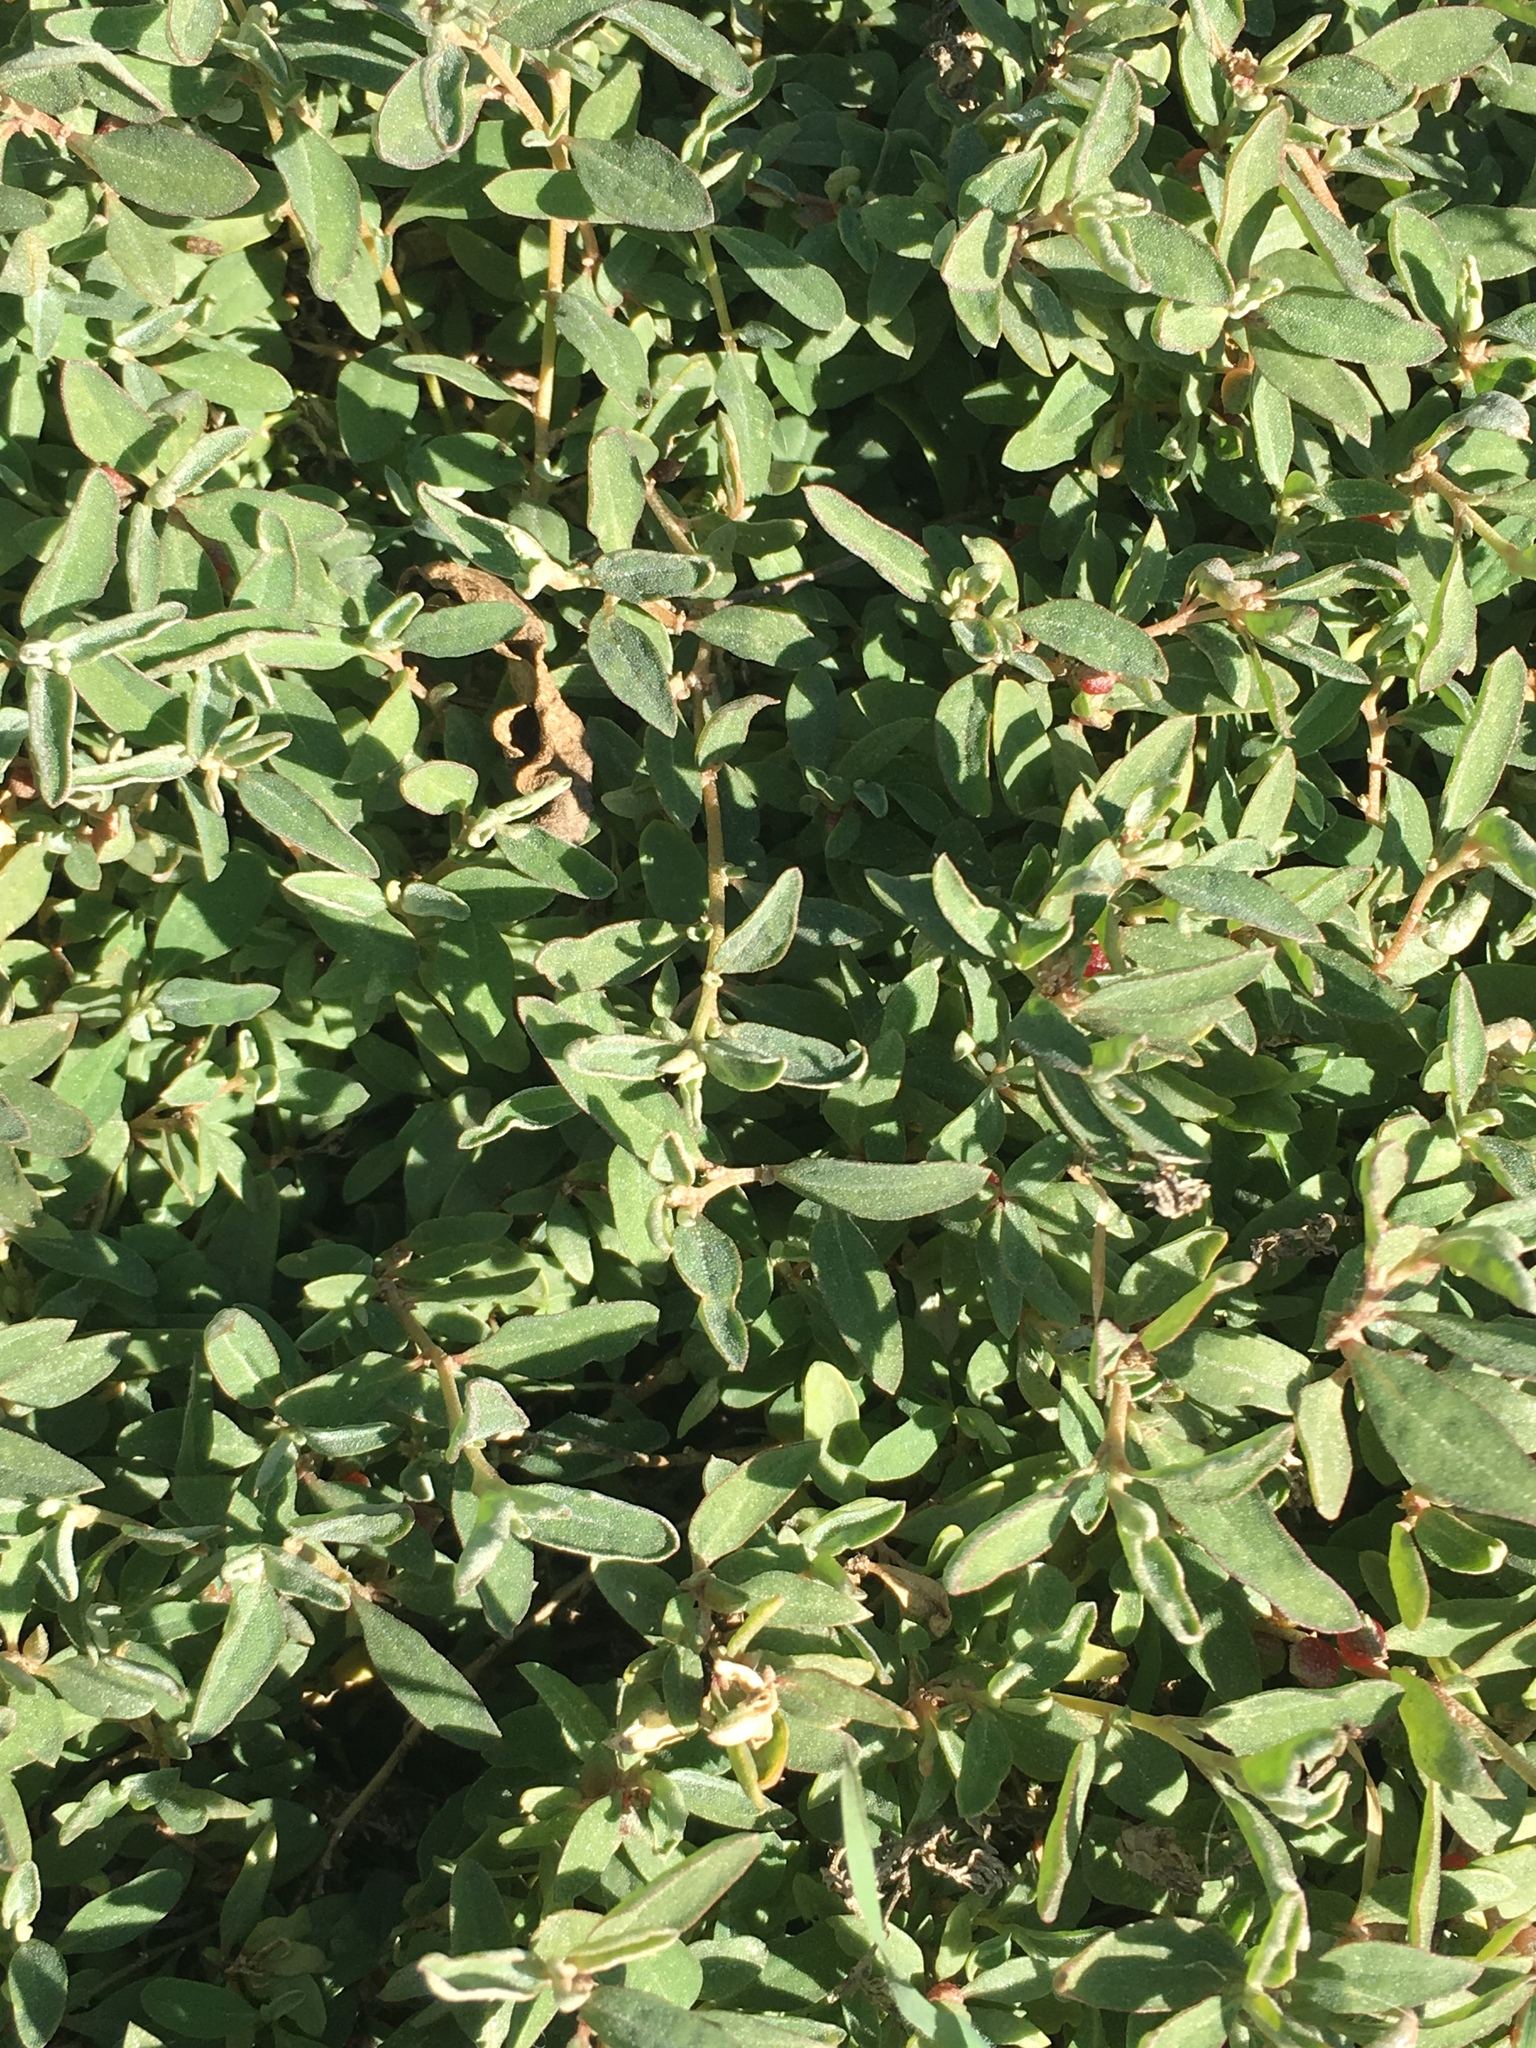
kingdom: Plantae
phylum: Tracheophyta
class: Magnoliopsida
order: Caryophyllales
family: Amaranthaceae
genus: Atriplex
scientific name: Atriplex semibaccata
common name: Australian saltbush
